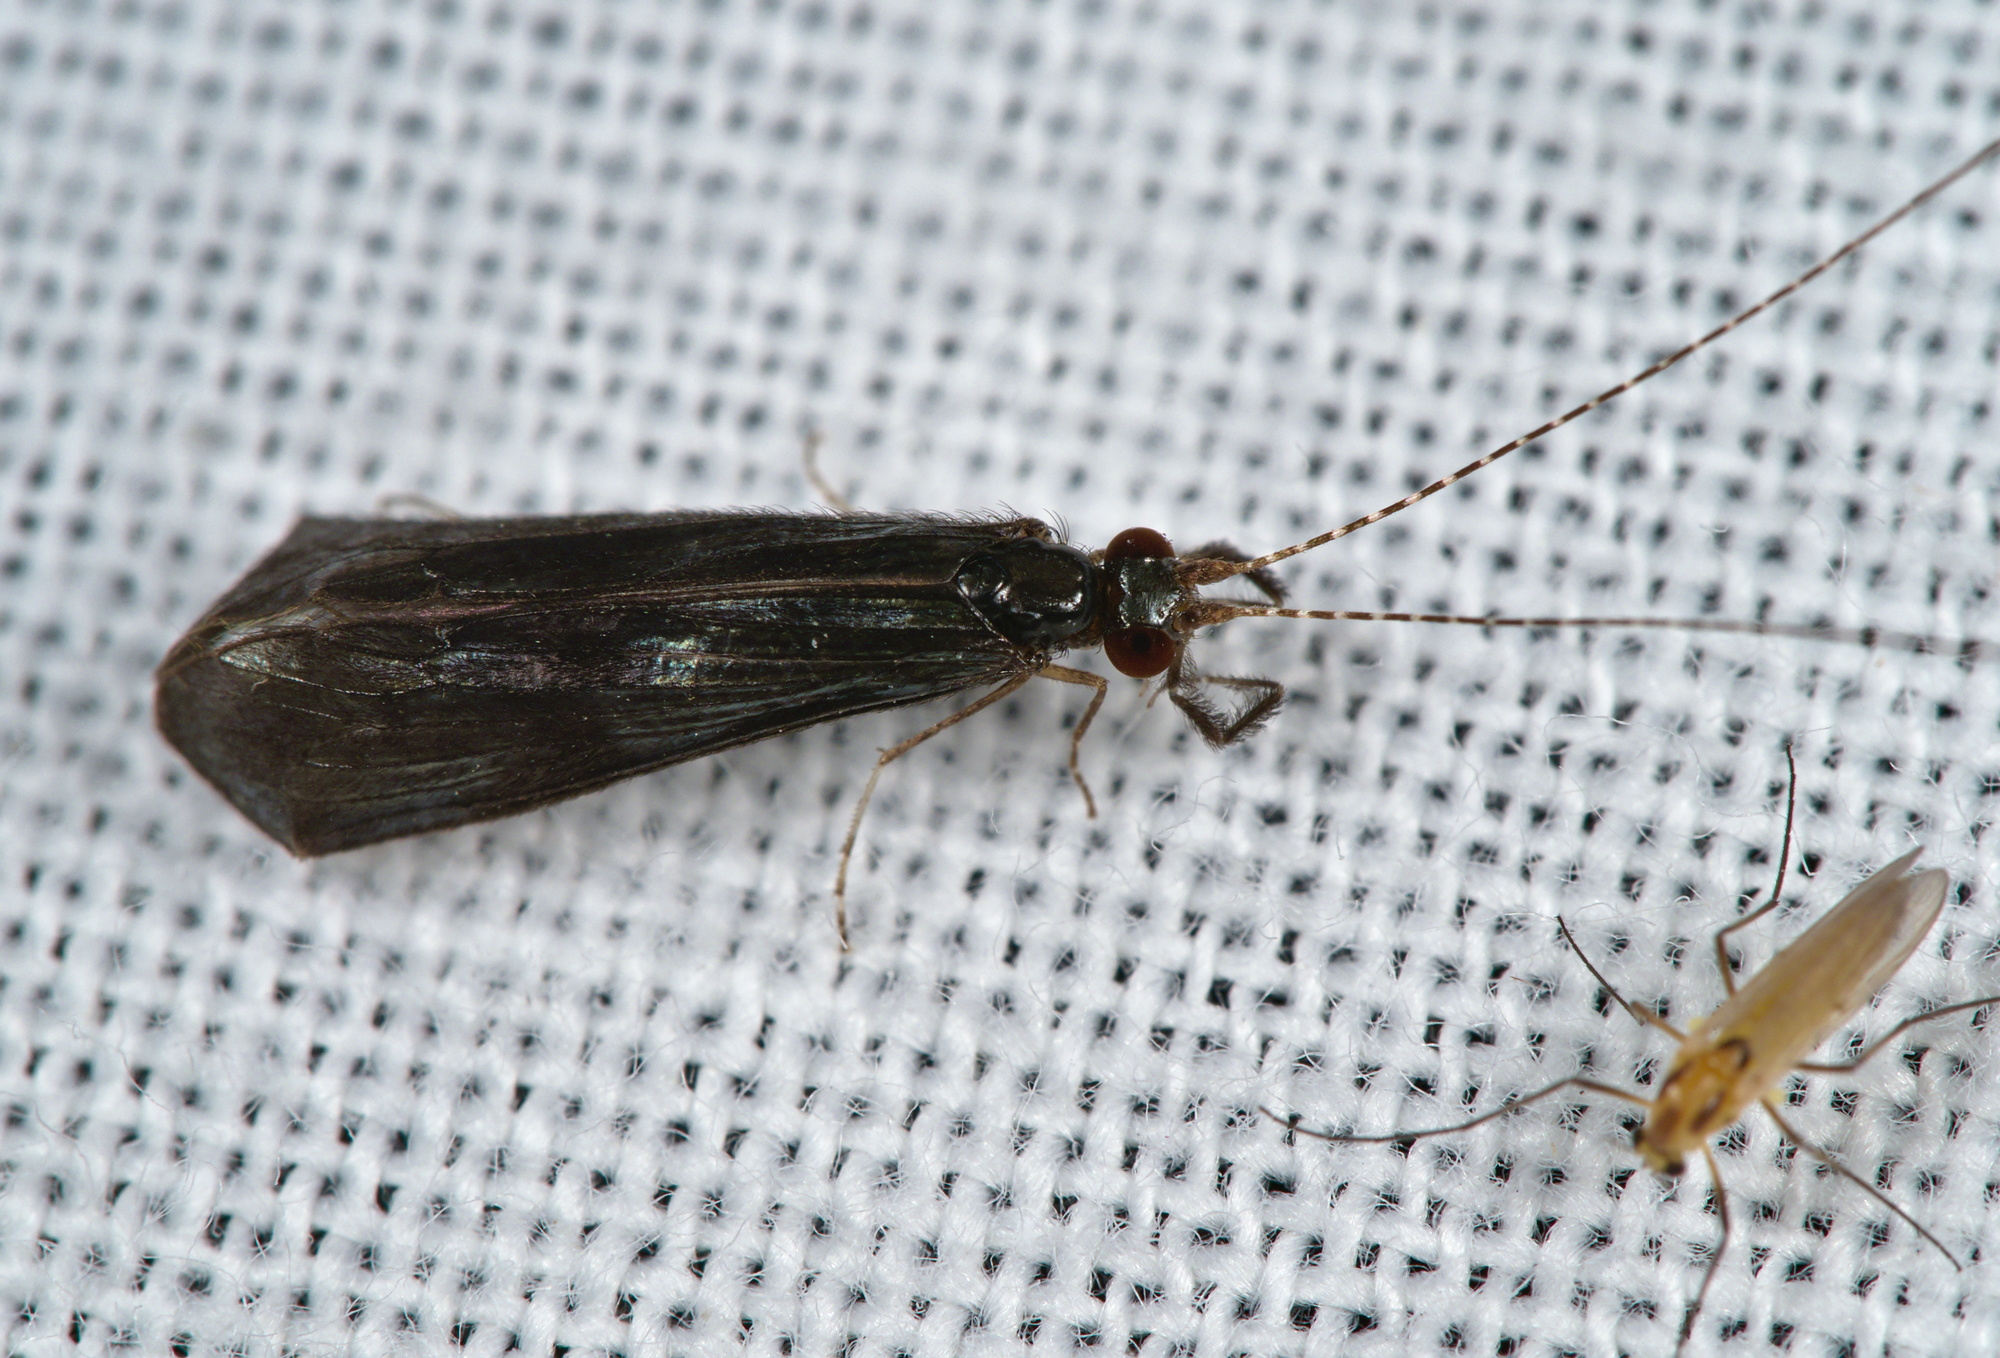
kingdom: Animalia
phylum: Arthropoda
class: Insecta
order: Trichoptera
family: Leptoceridae
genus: Mystacides
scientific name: Mystacides niger
